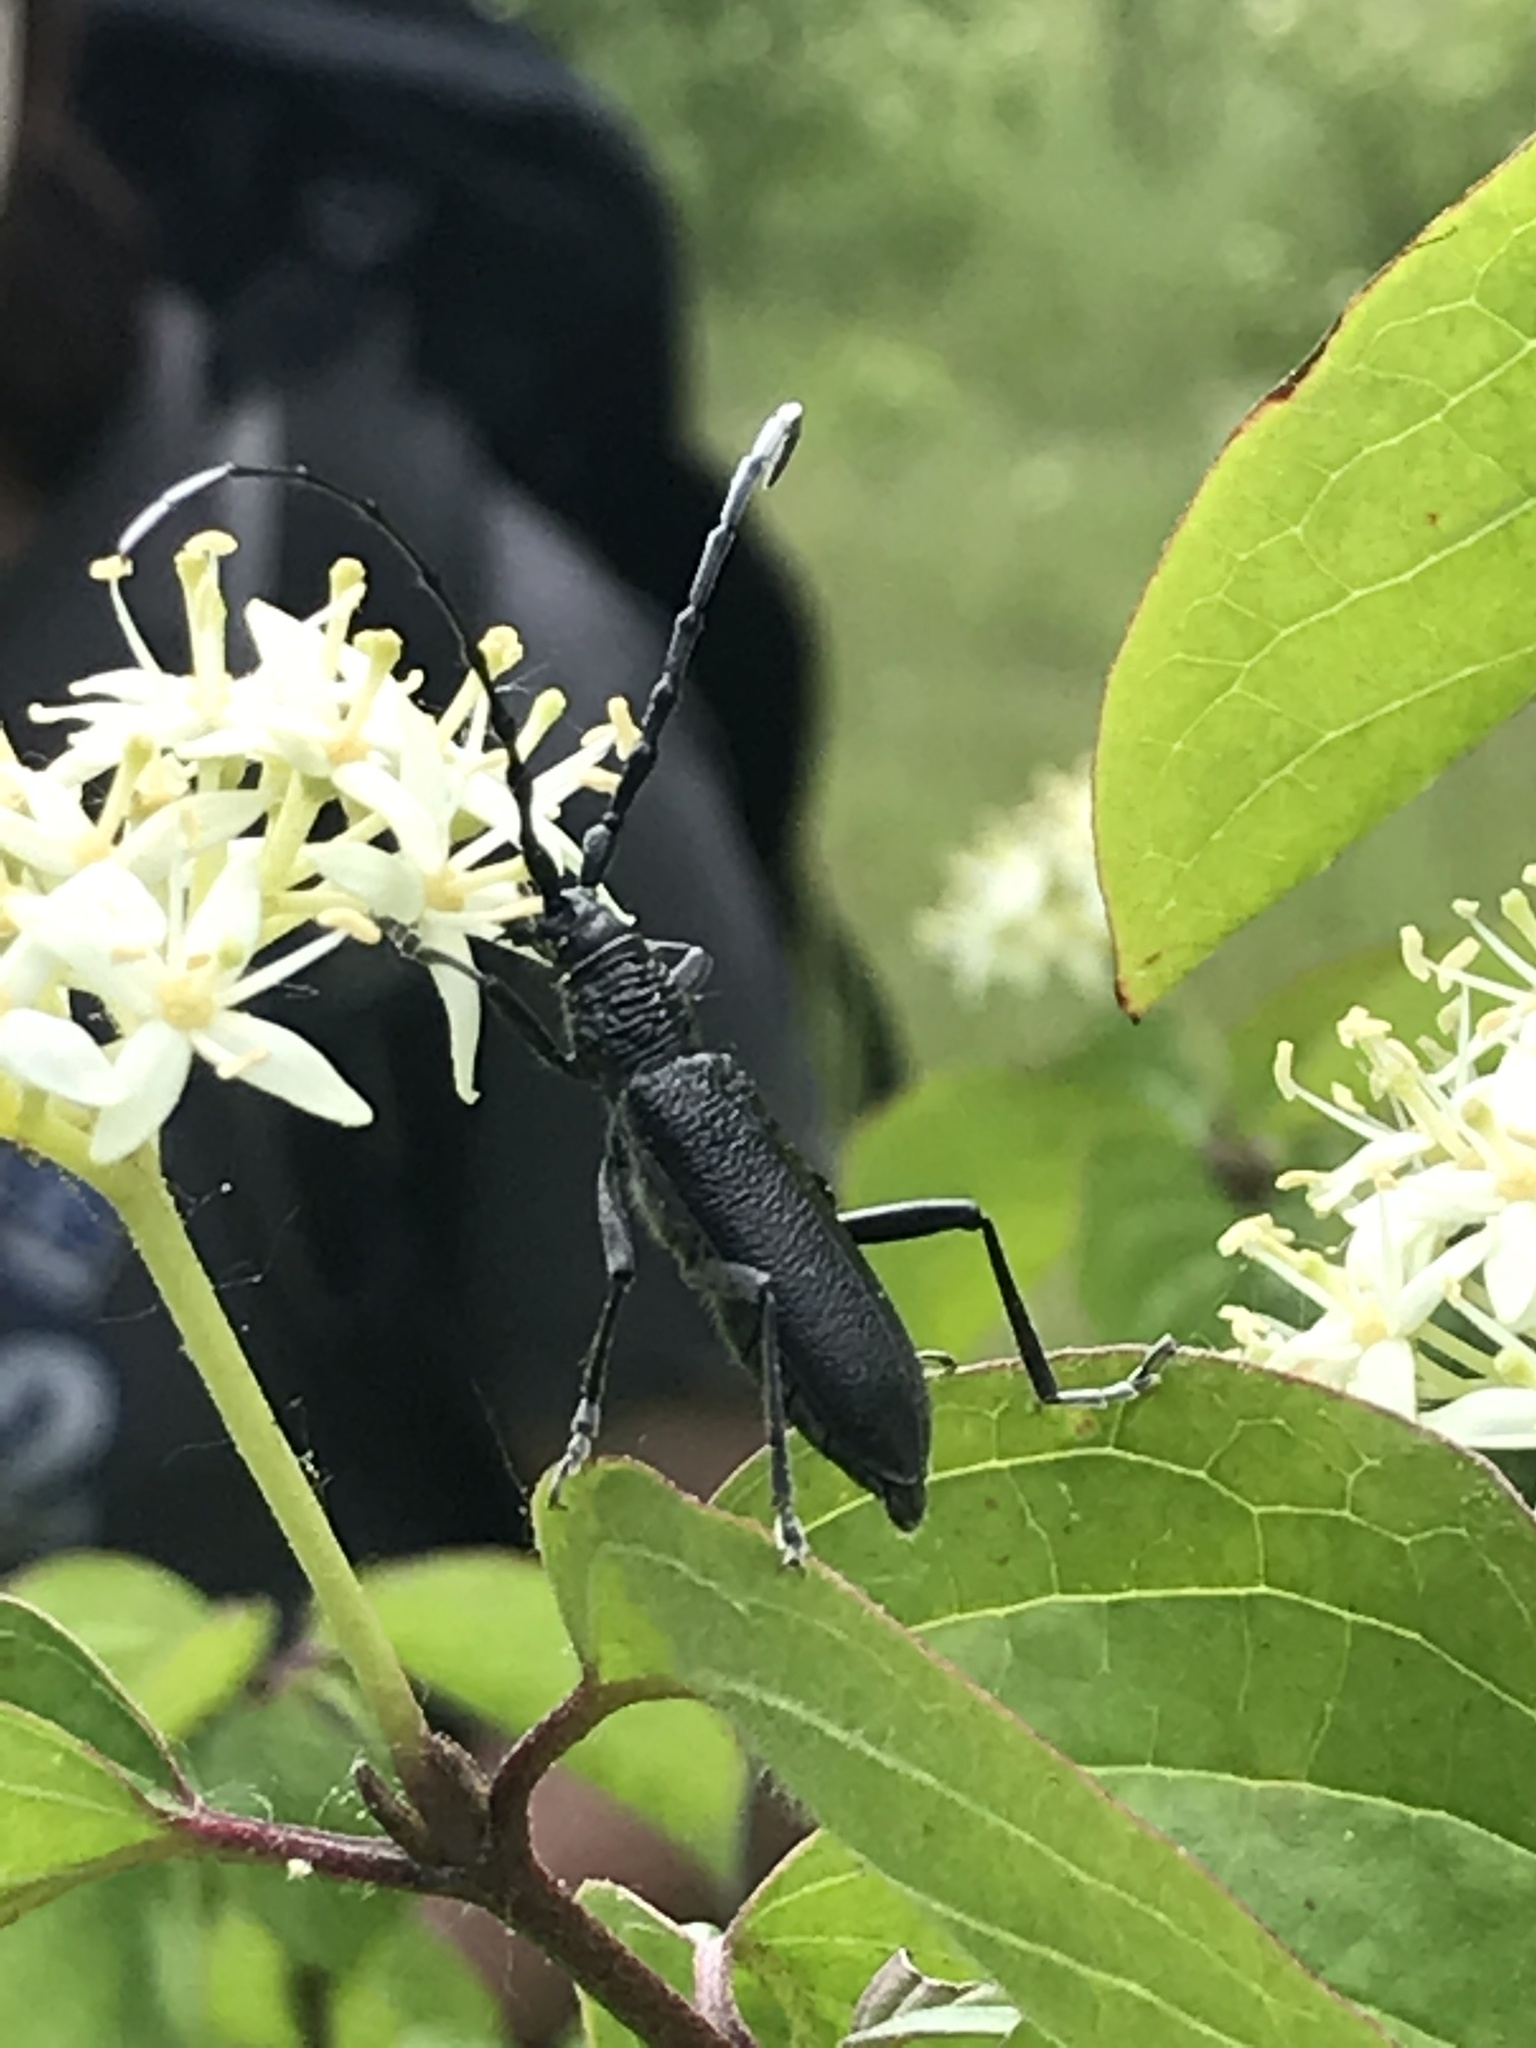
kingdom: Animalia
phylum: Arthropoda
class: Insecta
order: Coleoptera
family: Cerambycidae
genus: Cerambyx
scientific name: Cerambyx scopolii
